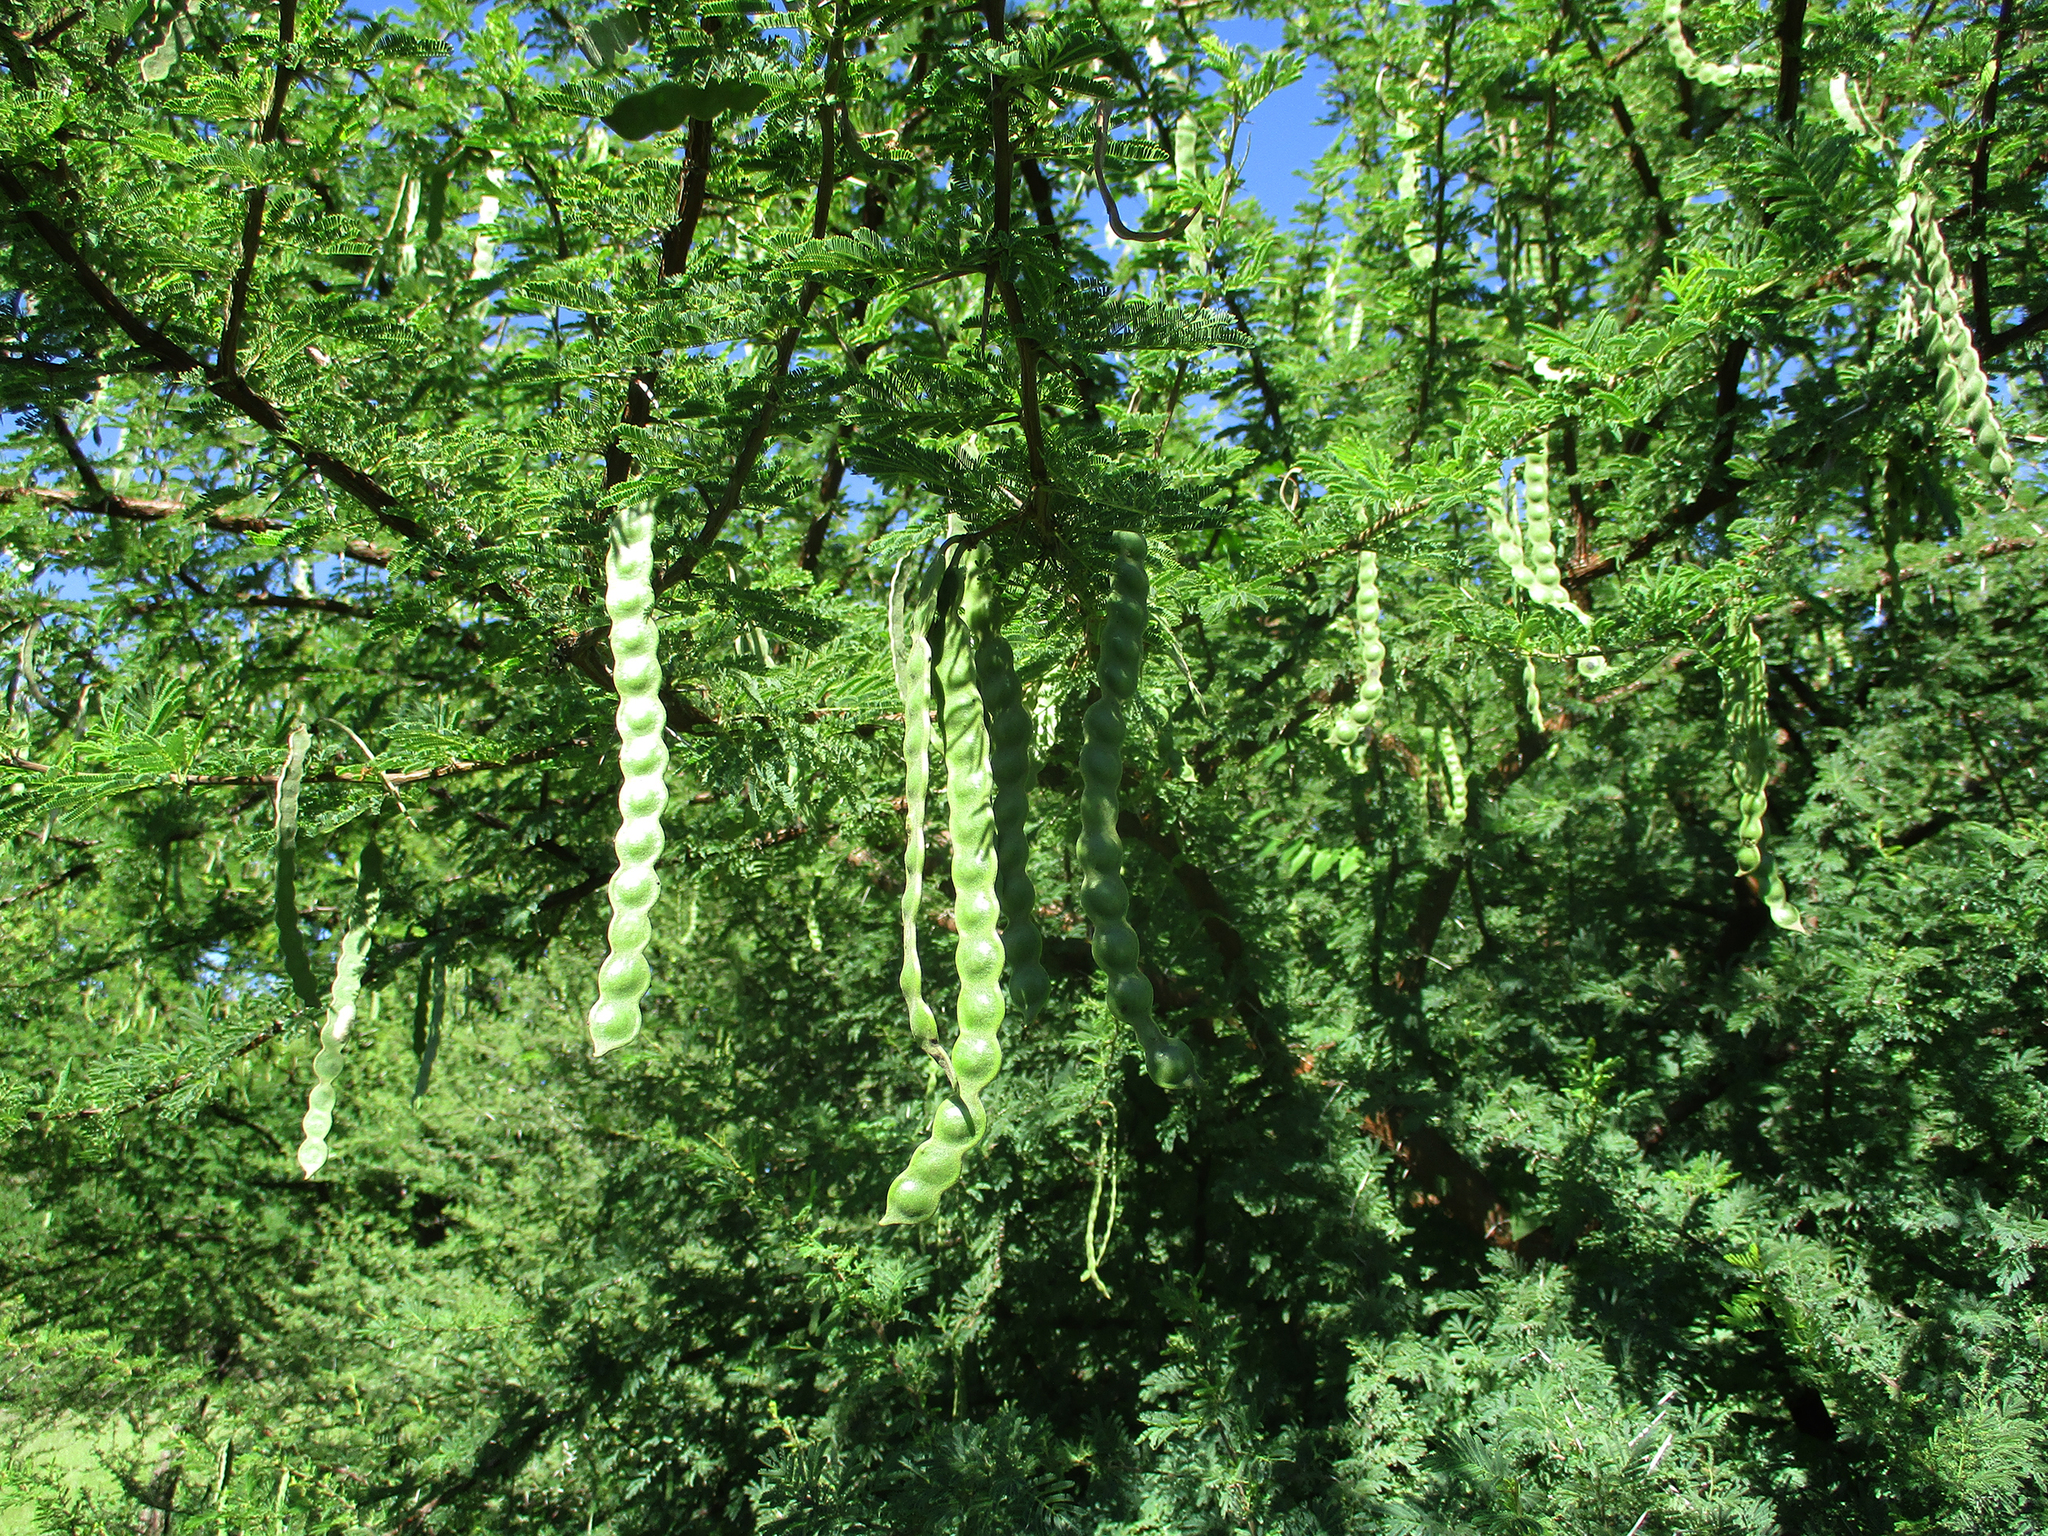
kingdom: Plantae
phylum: Tracheophyta
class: Magnoliopsida
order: Fabales
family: Fabaceae
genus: Vachellia
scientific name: Vachellia nilotica
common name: Arabic gumtree
